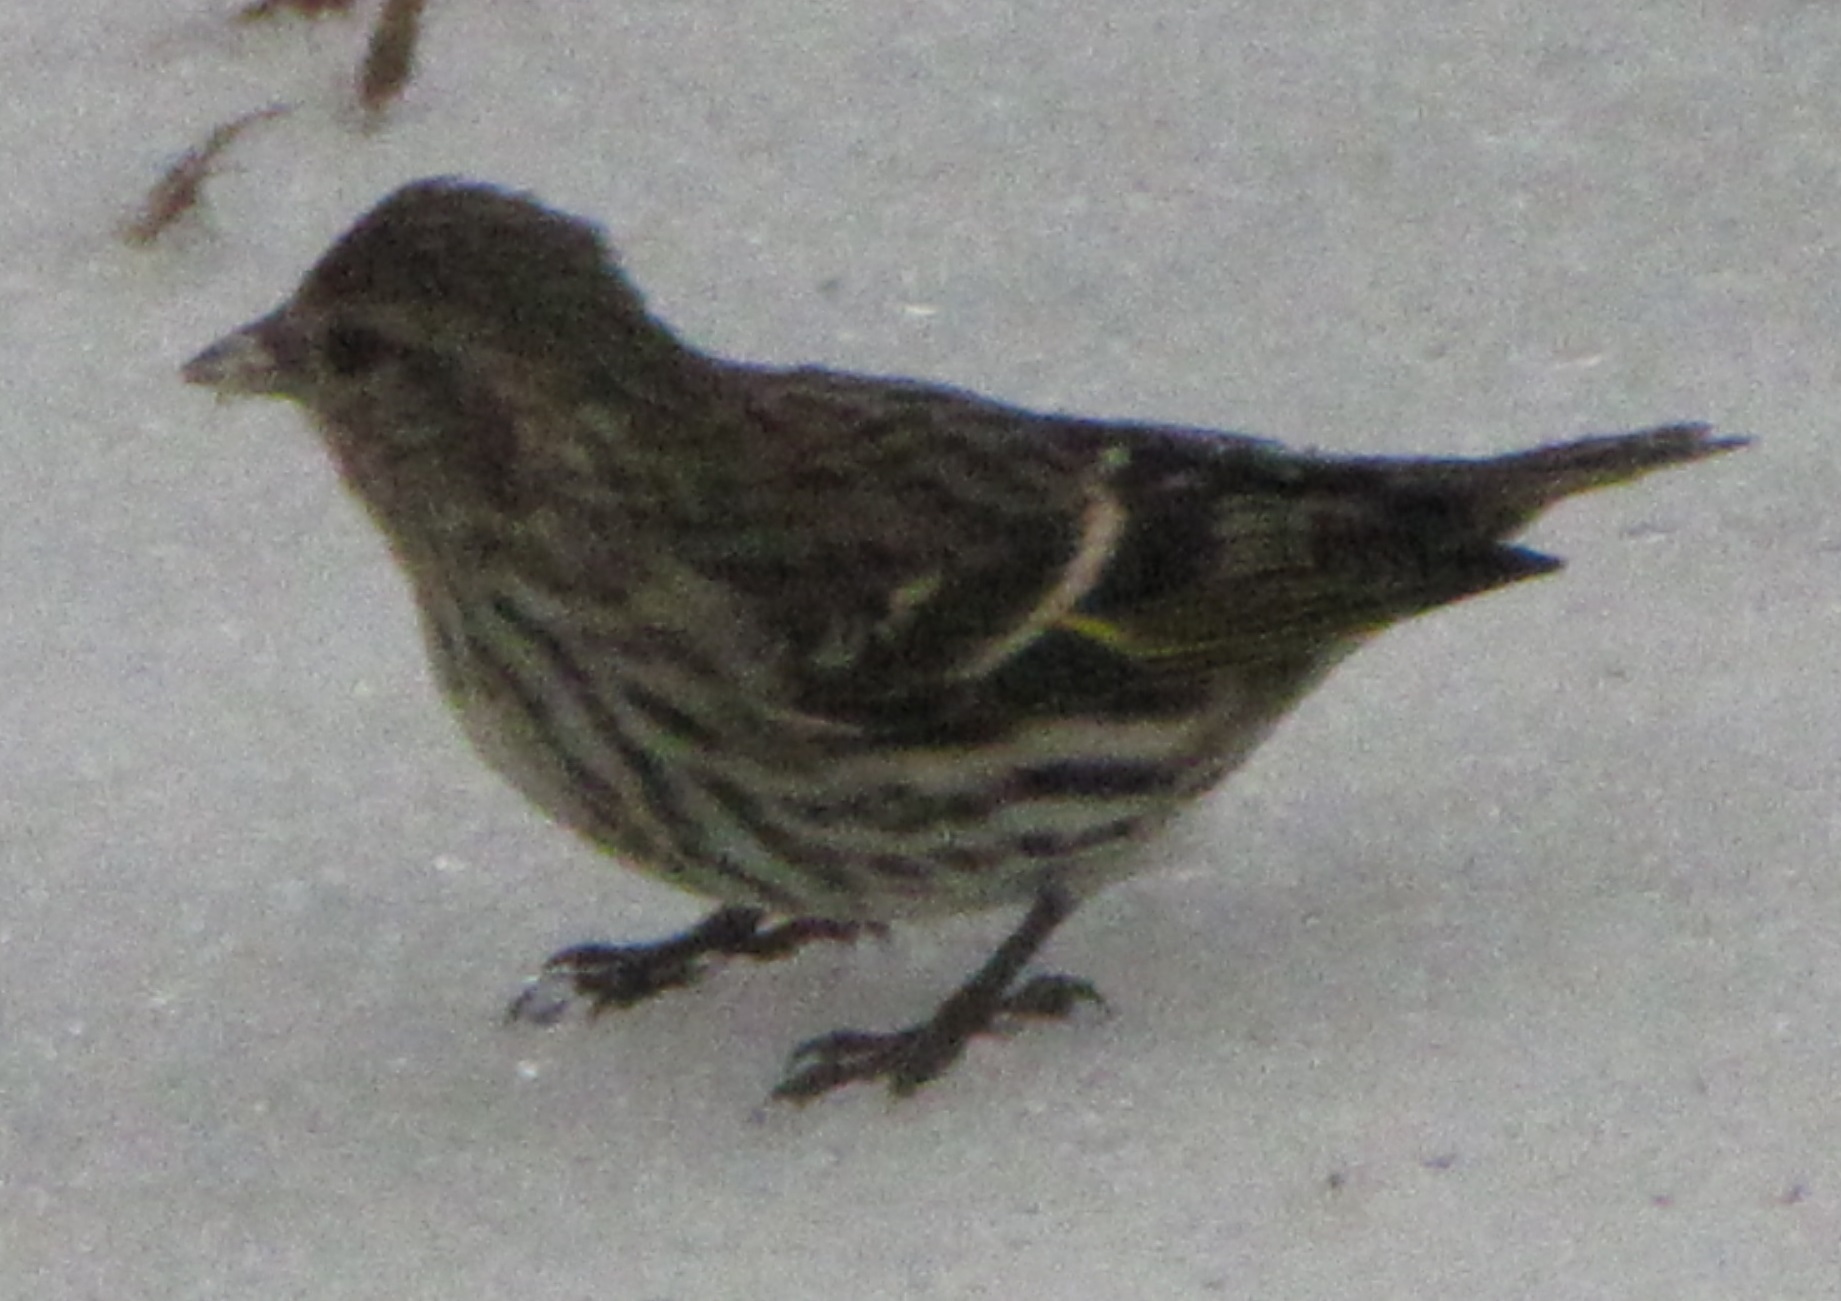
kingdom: Animalia
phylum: Chordata
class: Aves
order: Passeriformes
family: Fringillidae
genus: Spinus
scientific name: Spinus pinus
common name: Pine siskin
